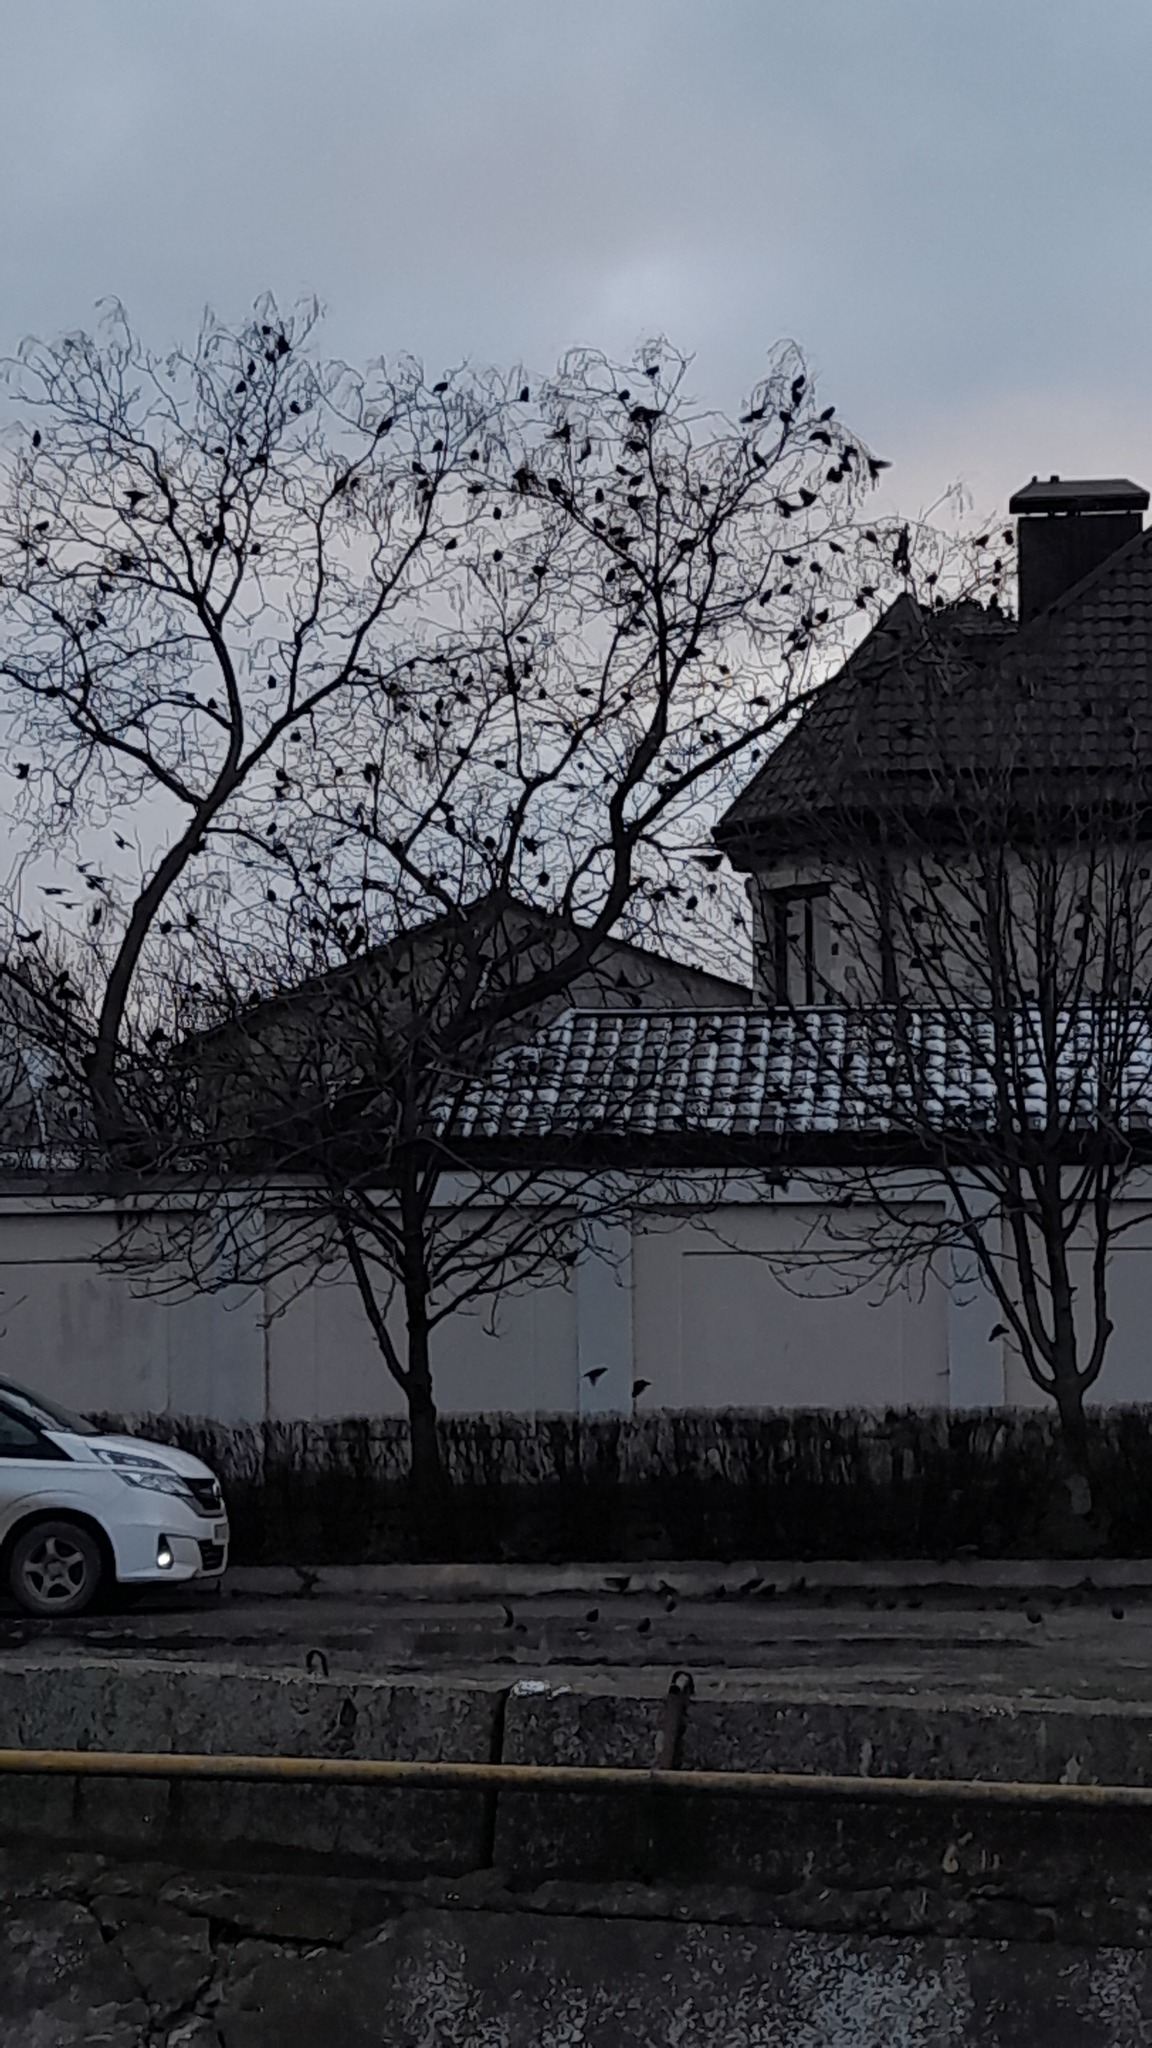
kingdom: Animalia
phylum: Chordata
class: Aves
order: Passeriformes
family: Sturnidae
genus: Sturnus
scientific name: Sturnus vulgaris
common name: Common starling
